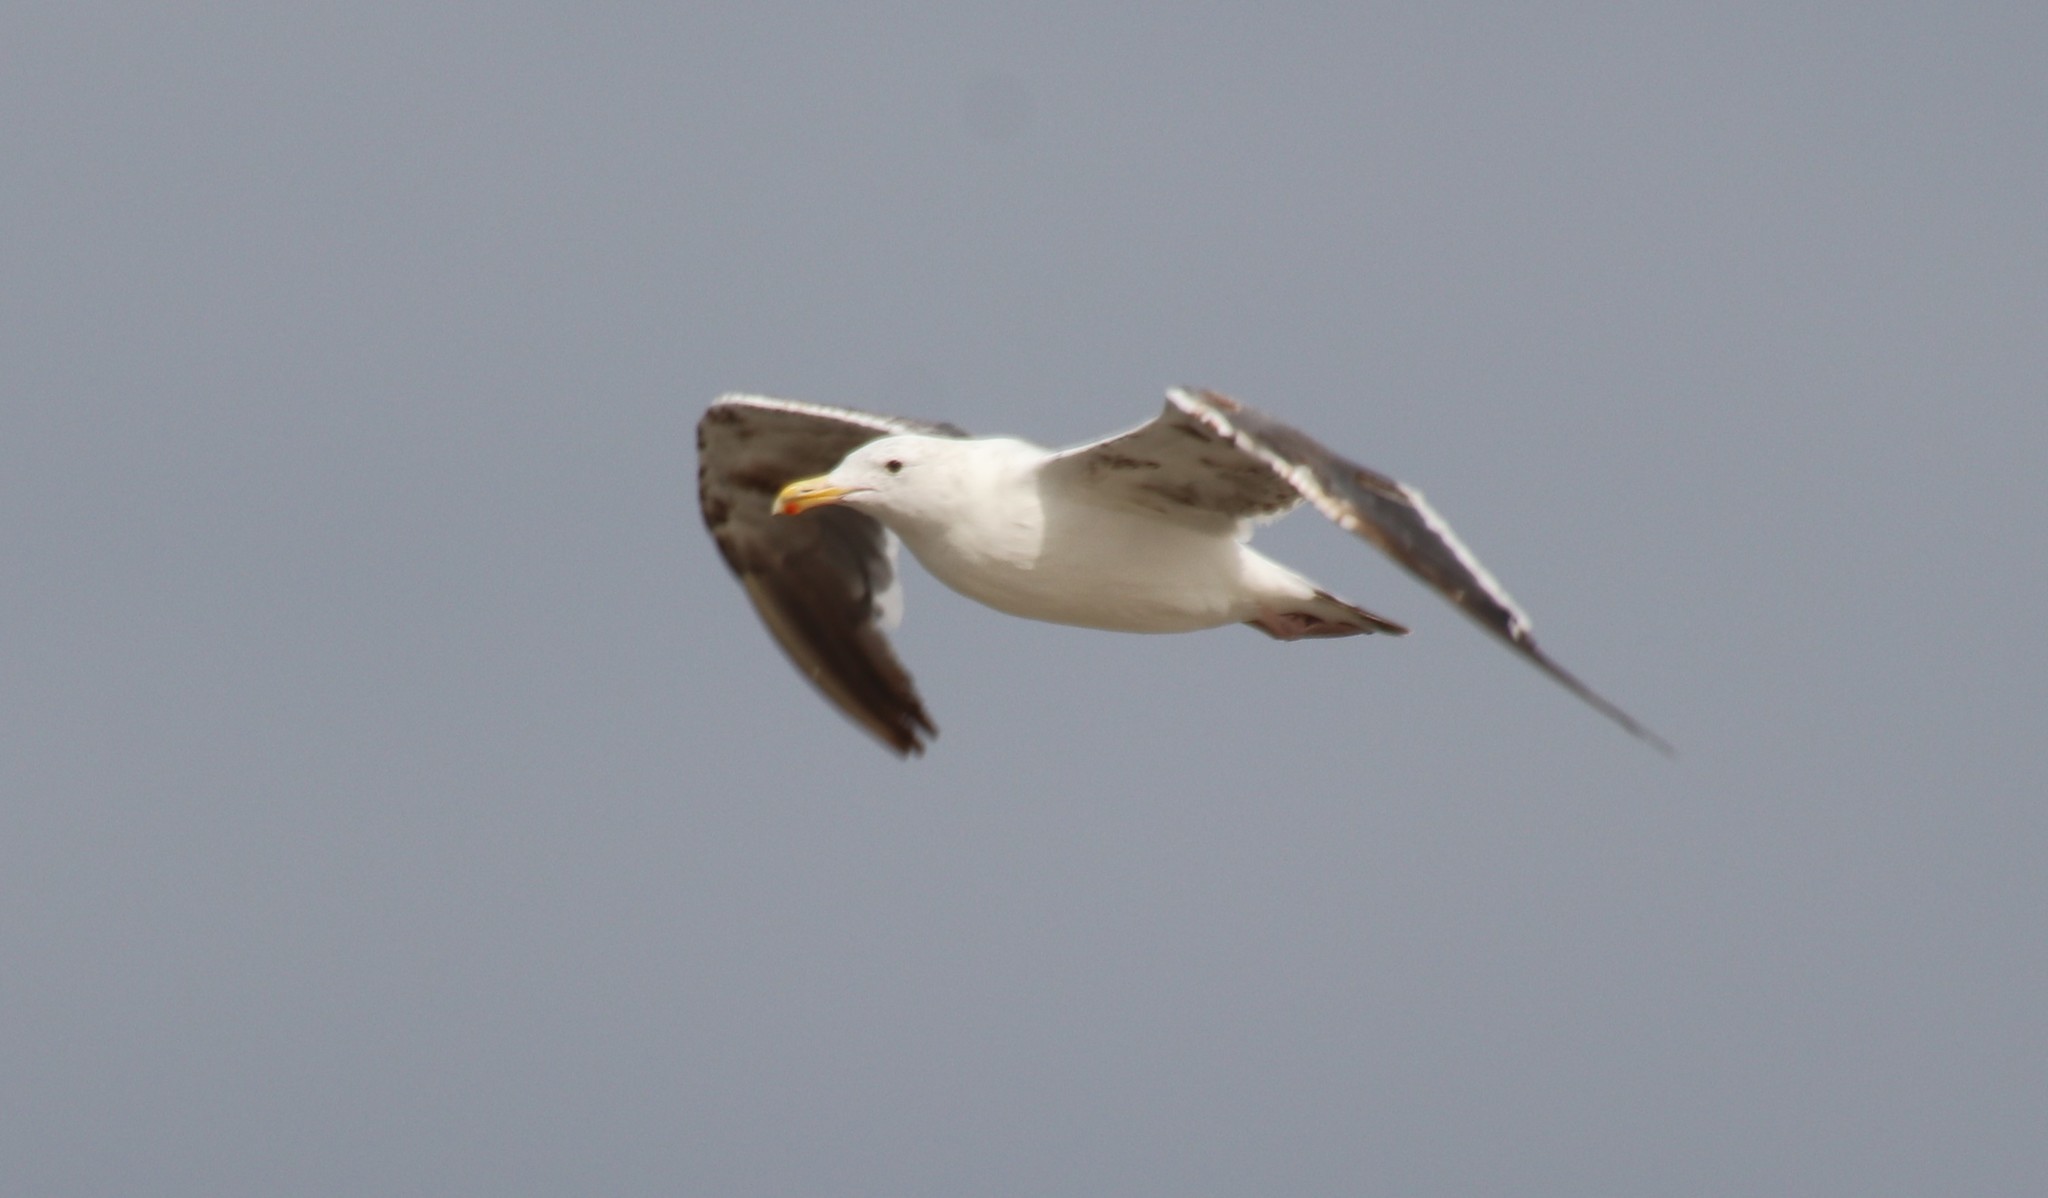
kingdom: Animalia
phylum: Chordata
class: Aves
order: Charadriiformes
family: Laridae
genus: Larus
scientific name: Larus occidentalis
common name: Western gull
